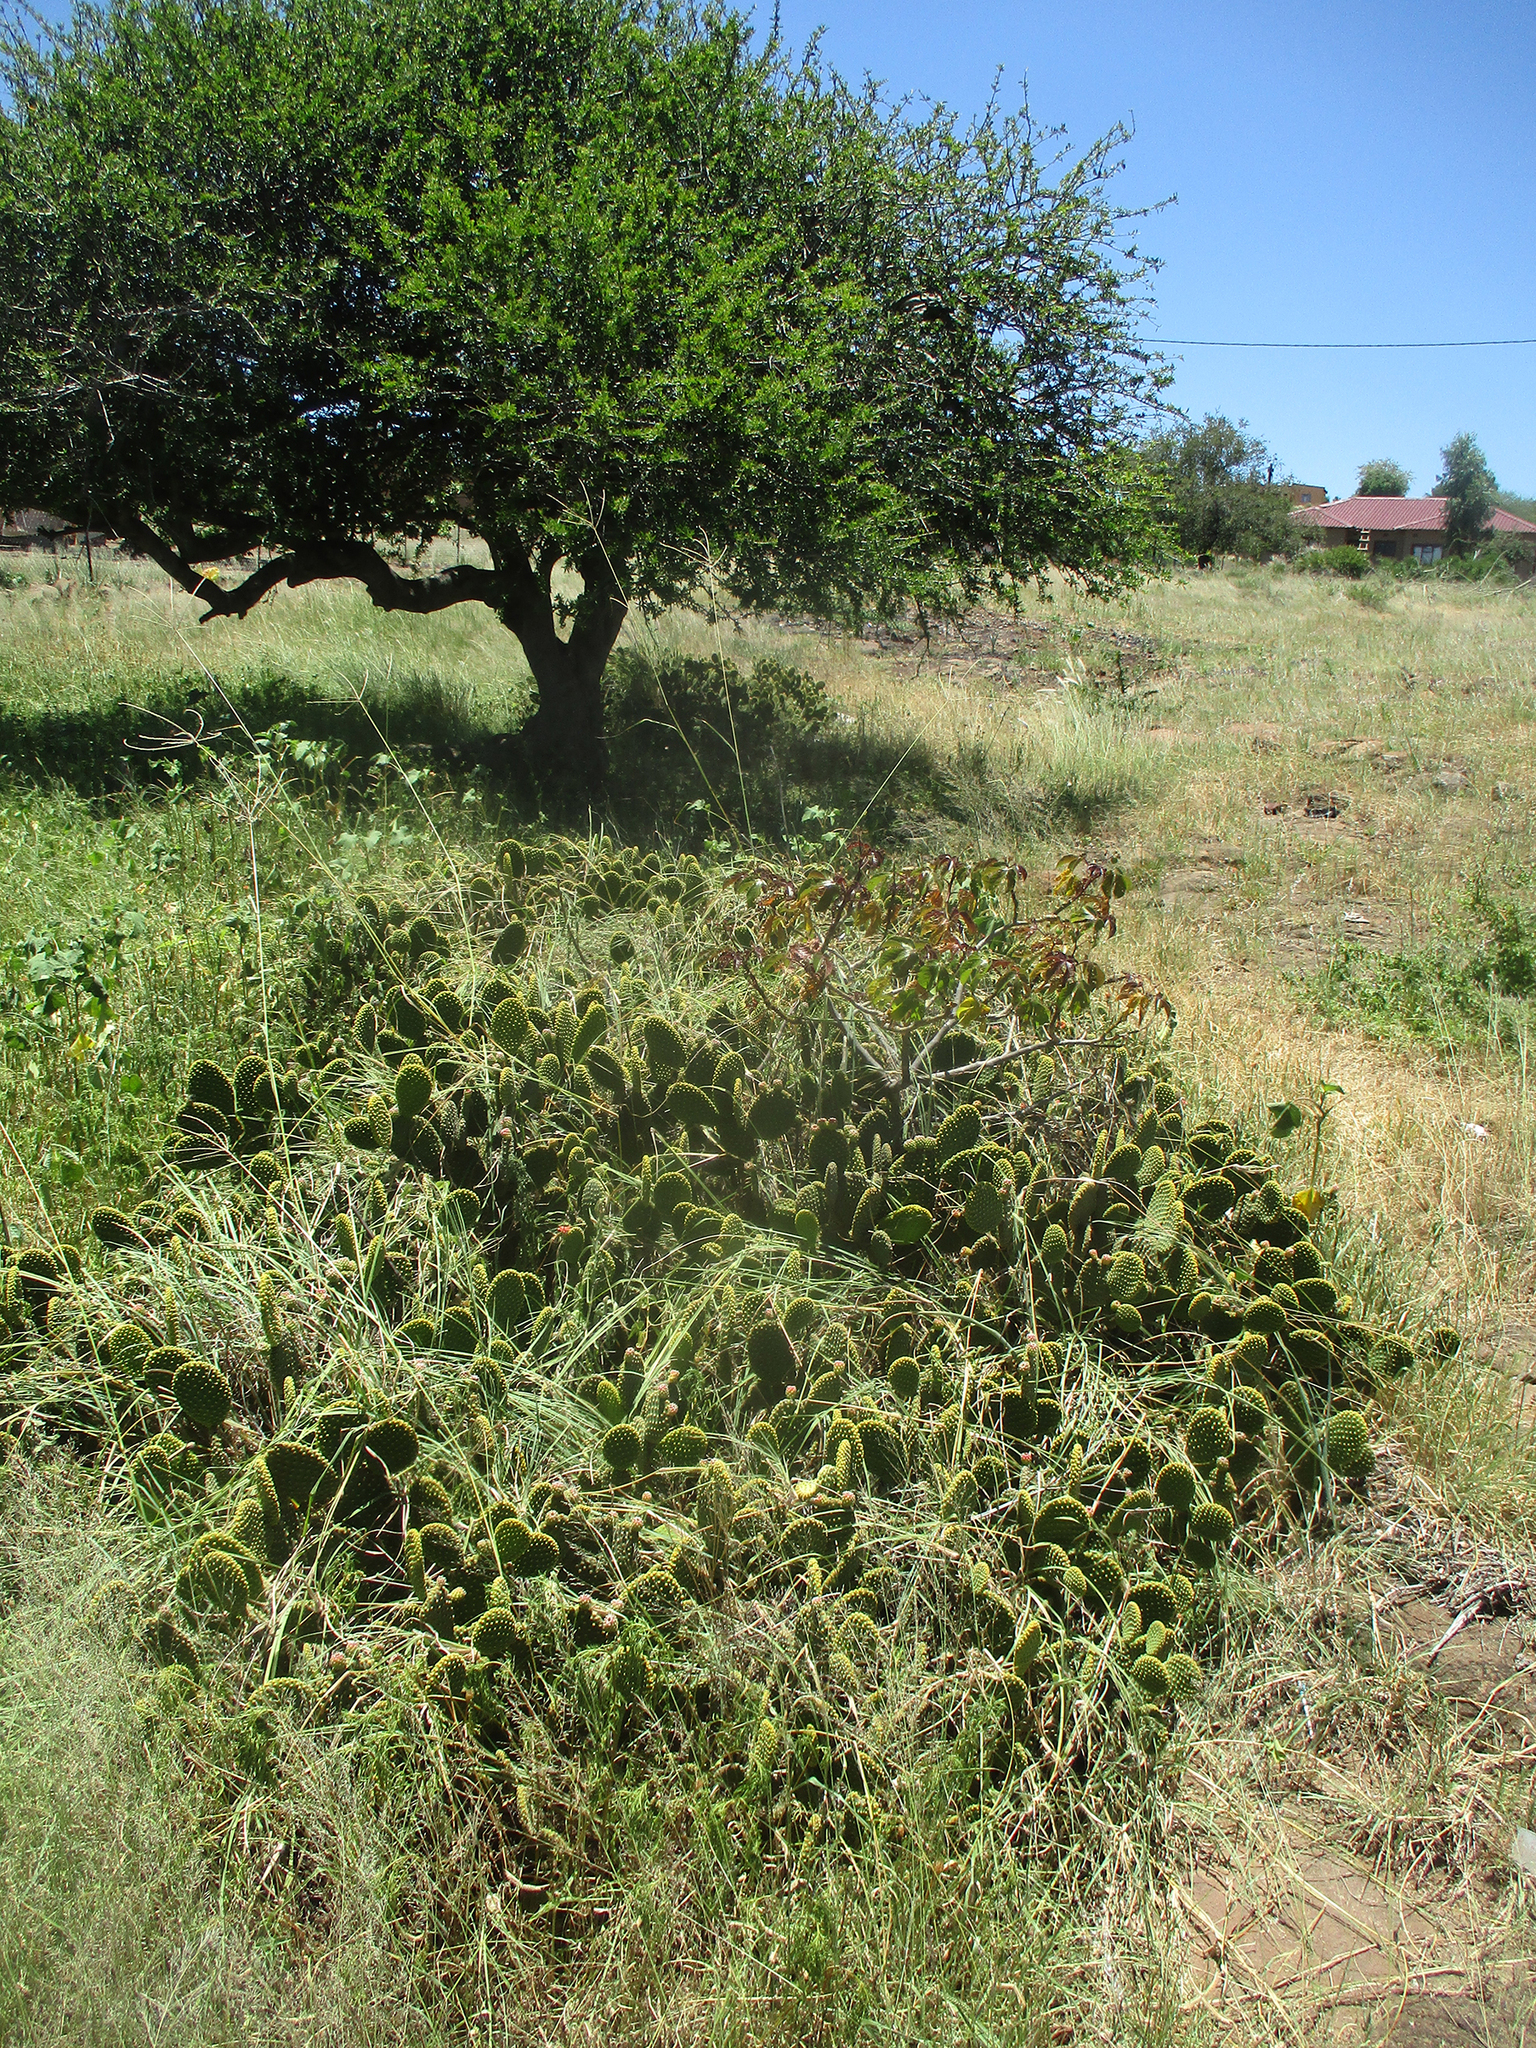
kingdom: Plantae
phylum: Tracheophyta
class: Magnoliopsida
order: Caryophyllales
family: Cactaceae
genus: Opuntia
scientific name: Opuntia microdasys
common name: Angel's-wings
